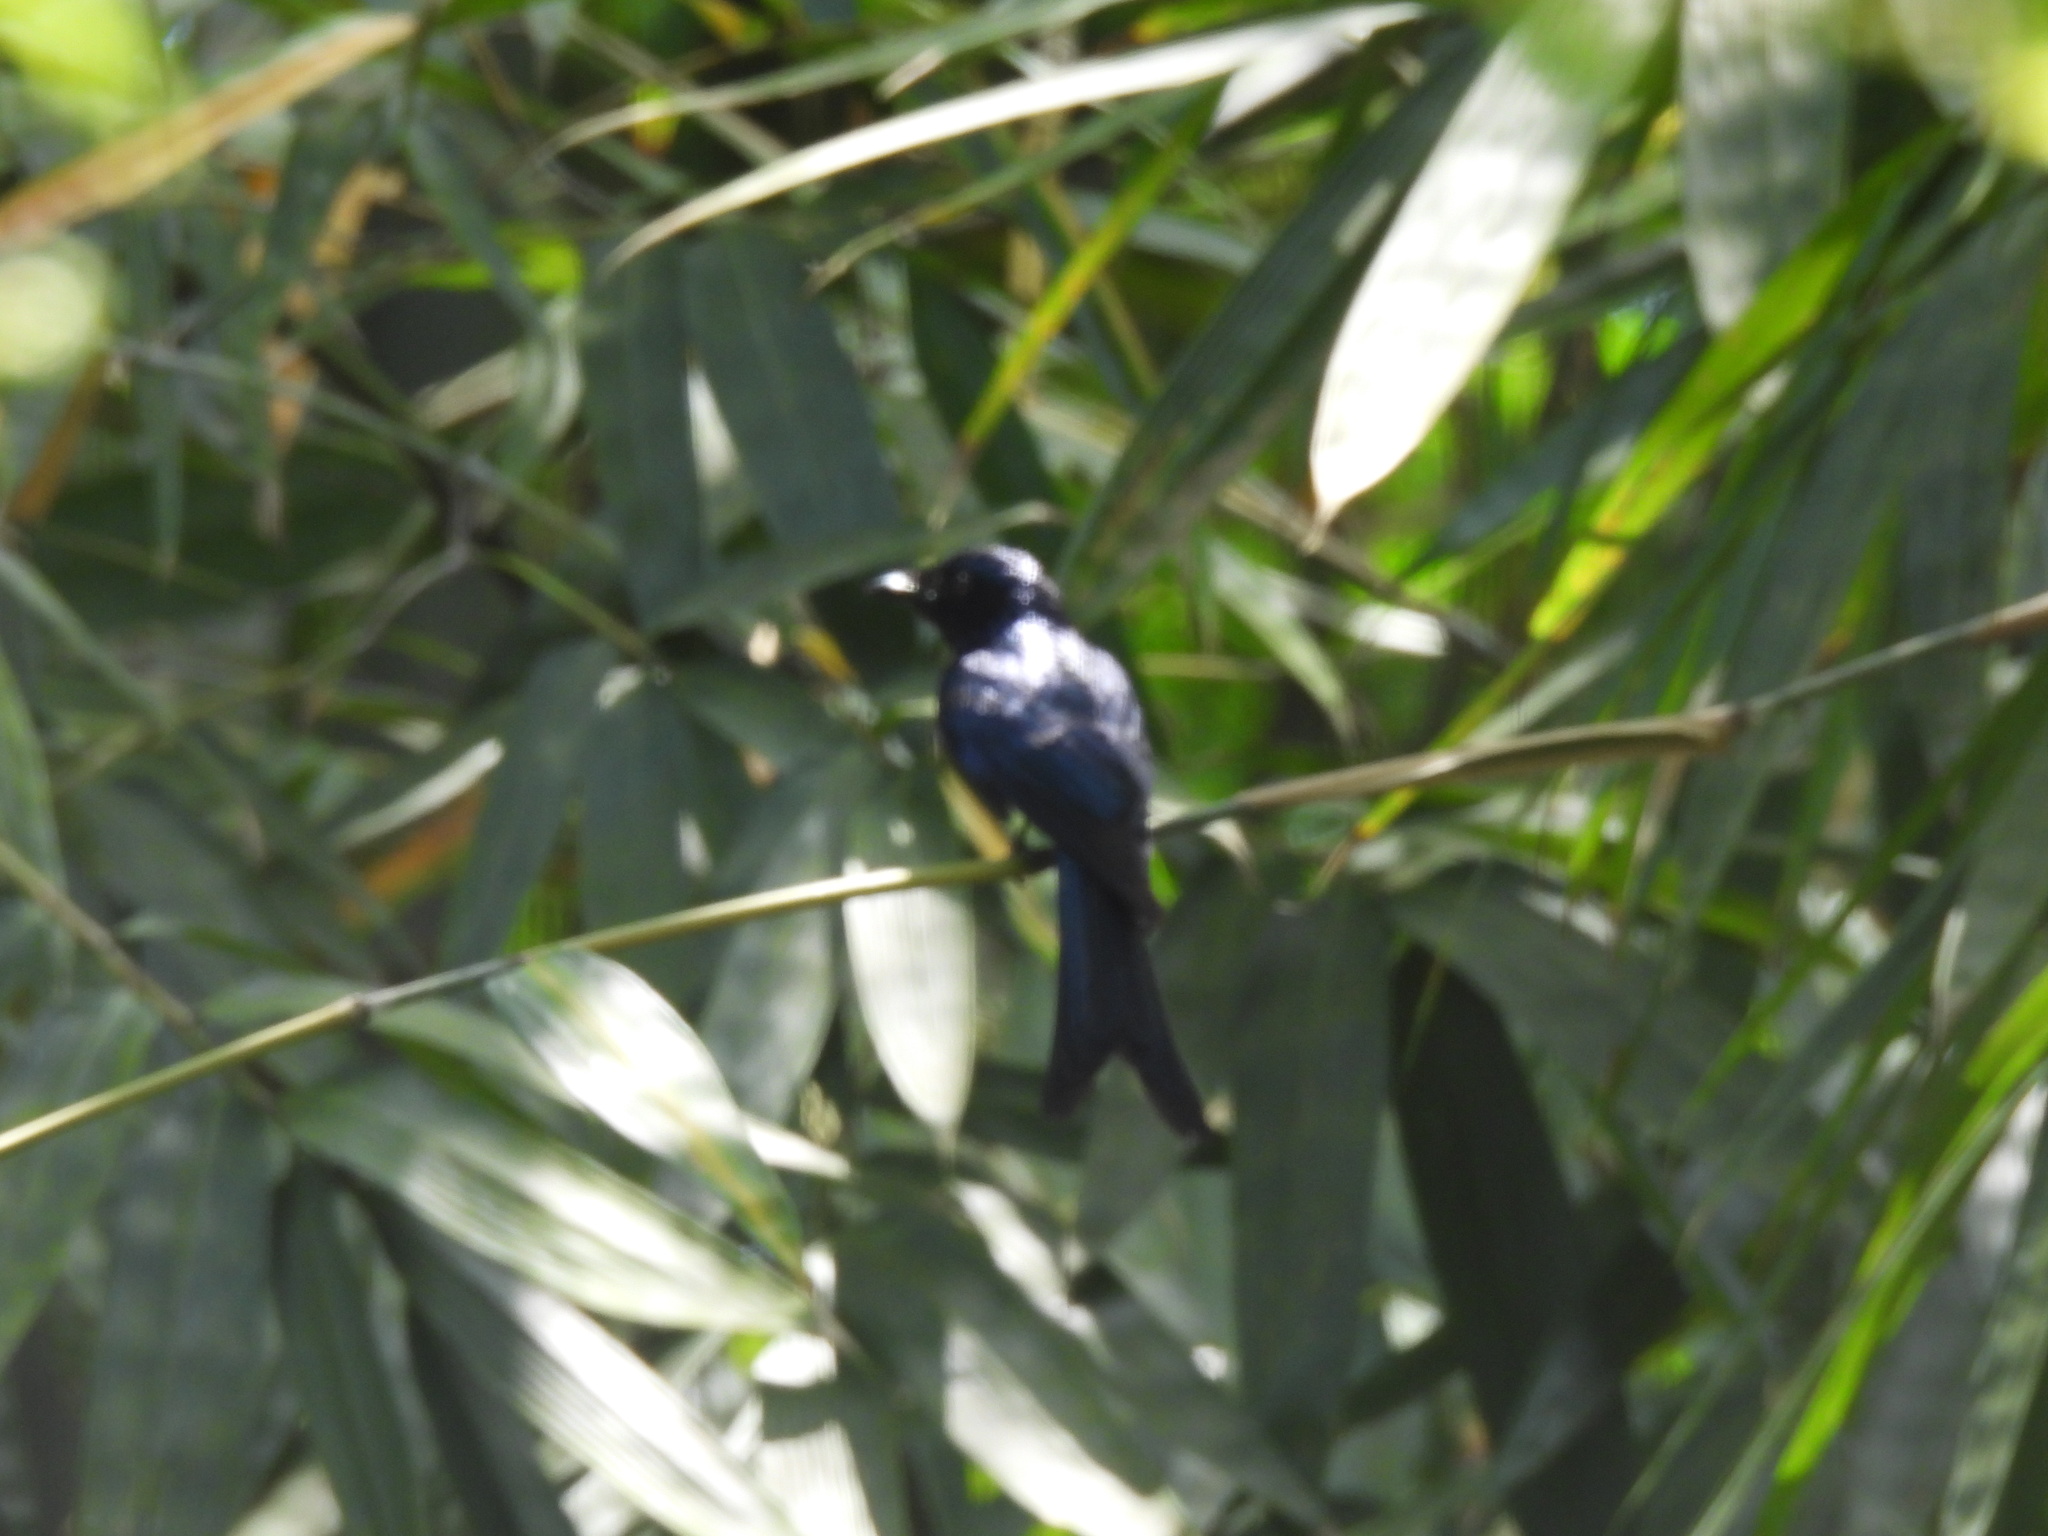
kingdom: Animalia
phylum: Chordata
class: Aves
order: Passeriformes
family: Dicruridae
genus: Dicrurus
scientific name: Dicrurus aeneus
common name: Bronzed drongo
